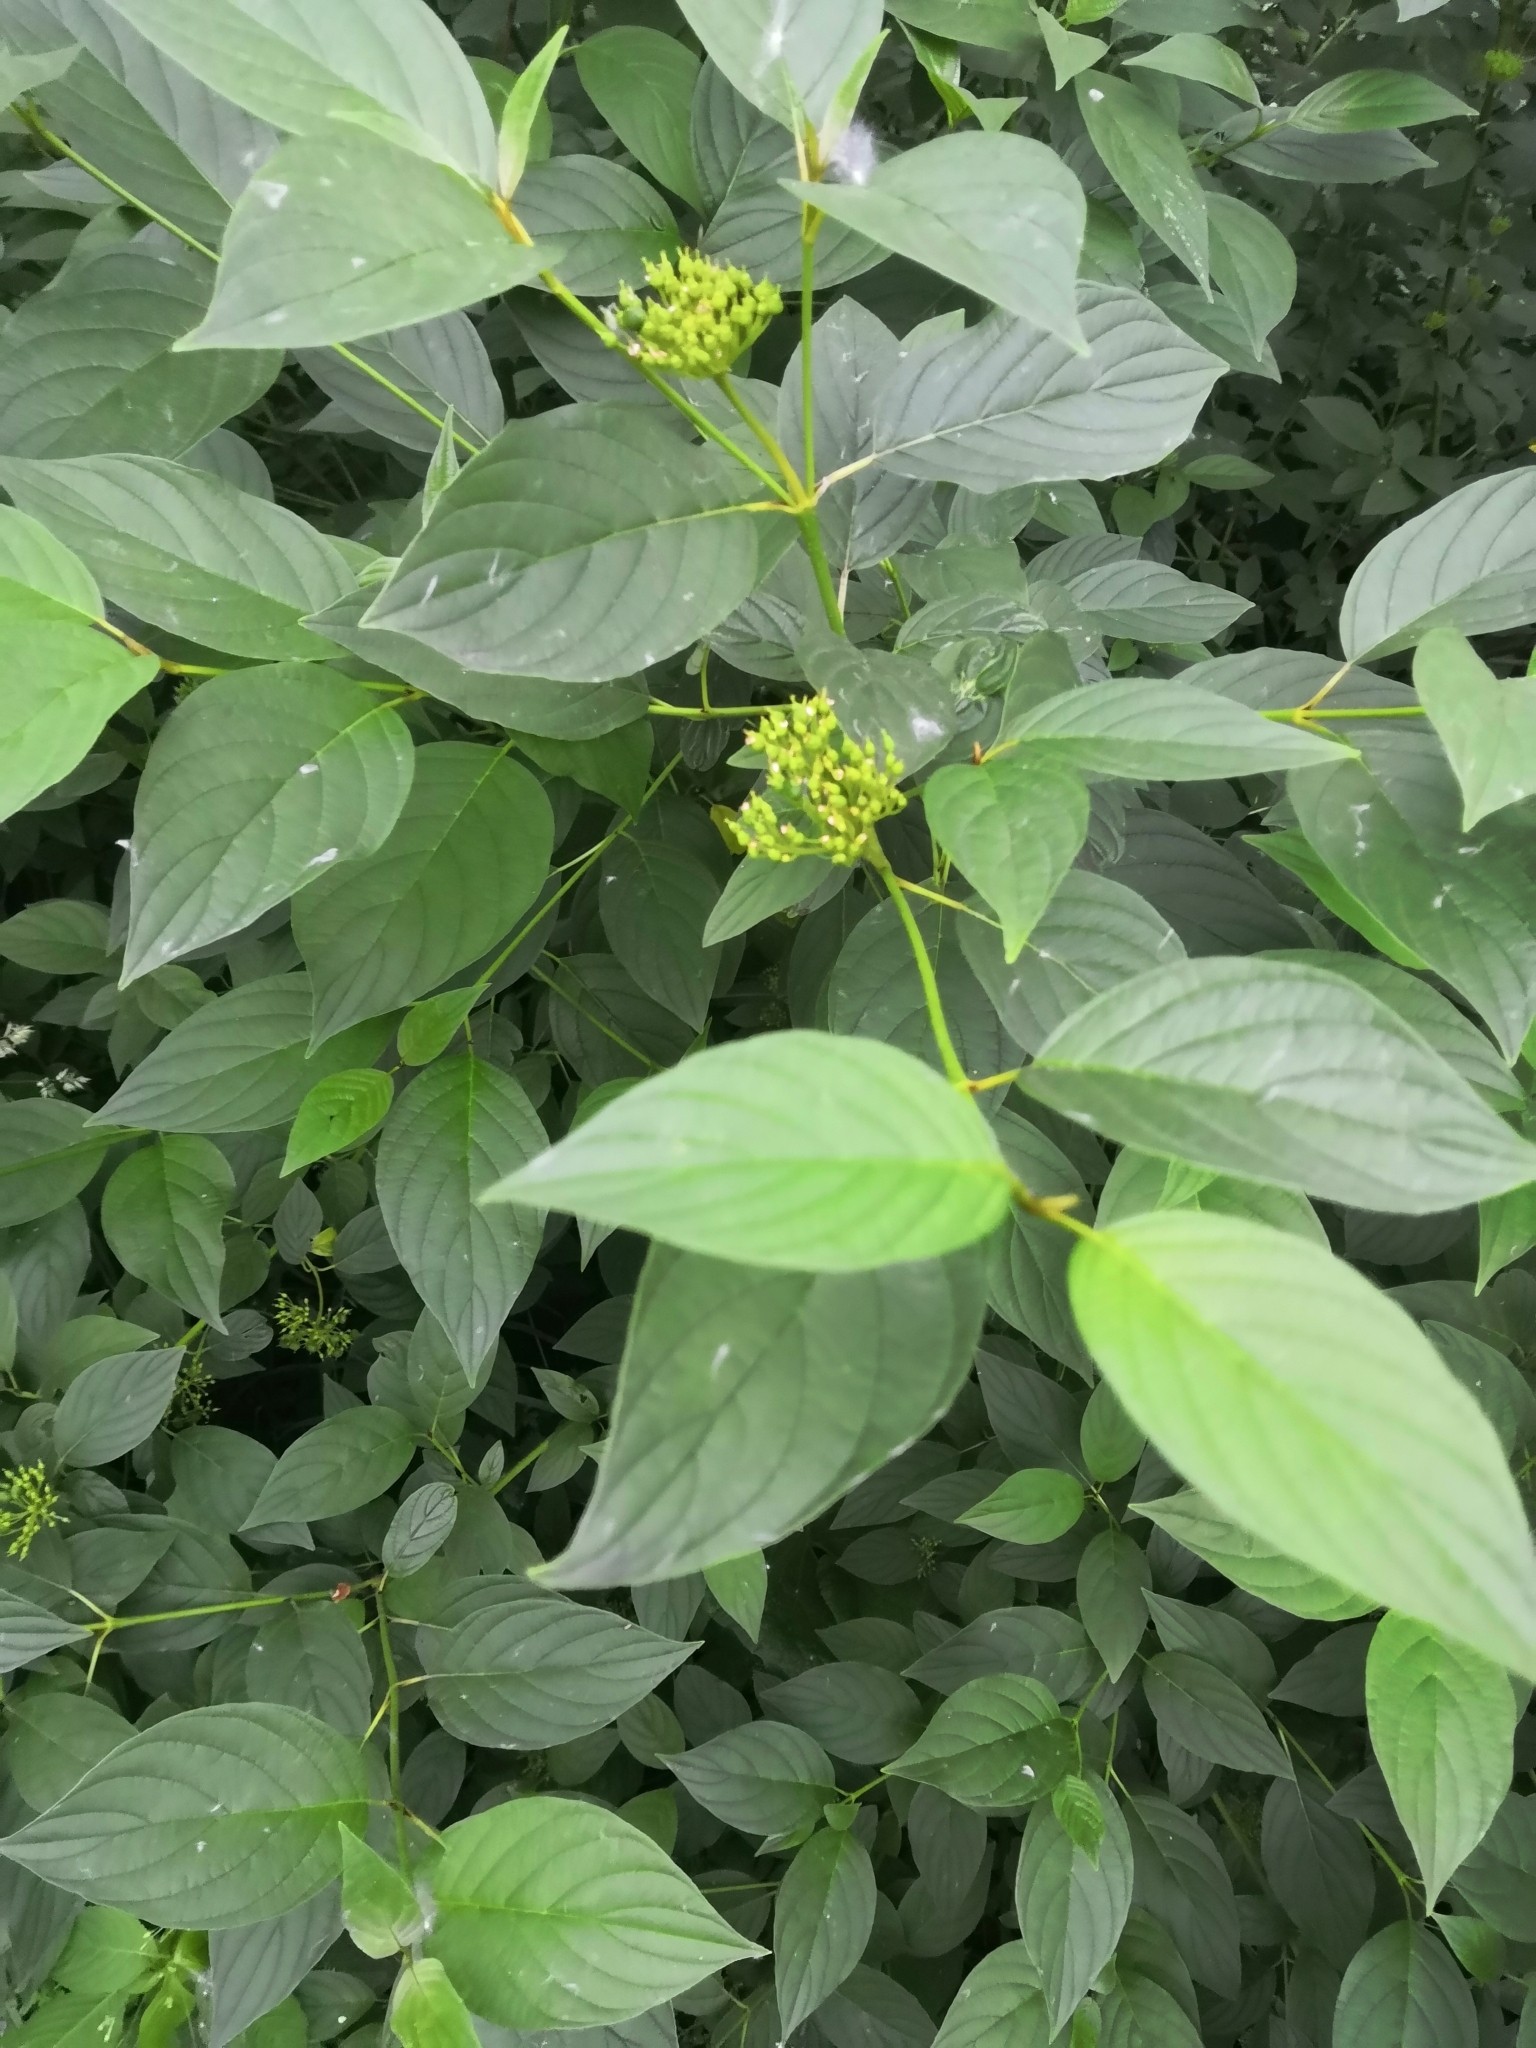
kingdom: Plantae
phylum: Tracheophyta
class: Magnoliopsida
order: Cornales
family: Cornaceae
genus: Cornus
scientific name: Cornus sericea
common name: Red-osier dogwood
